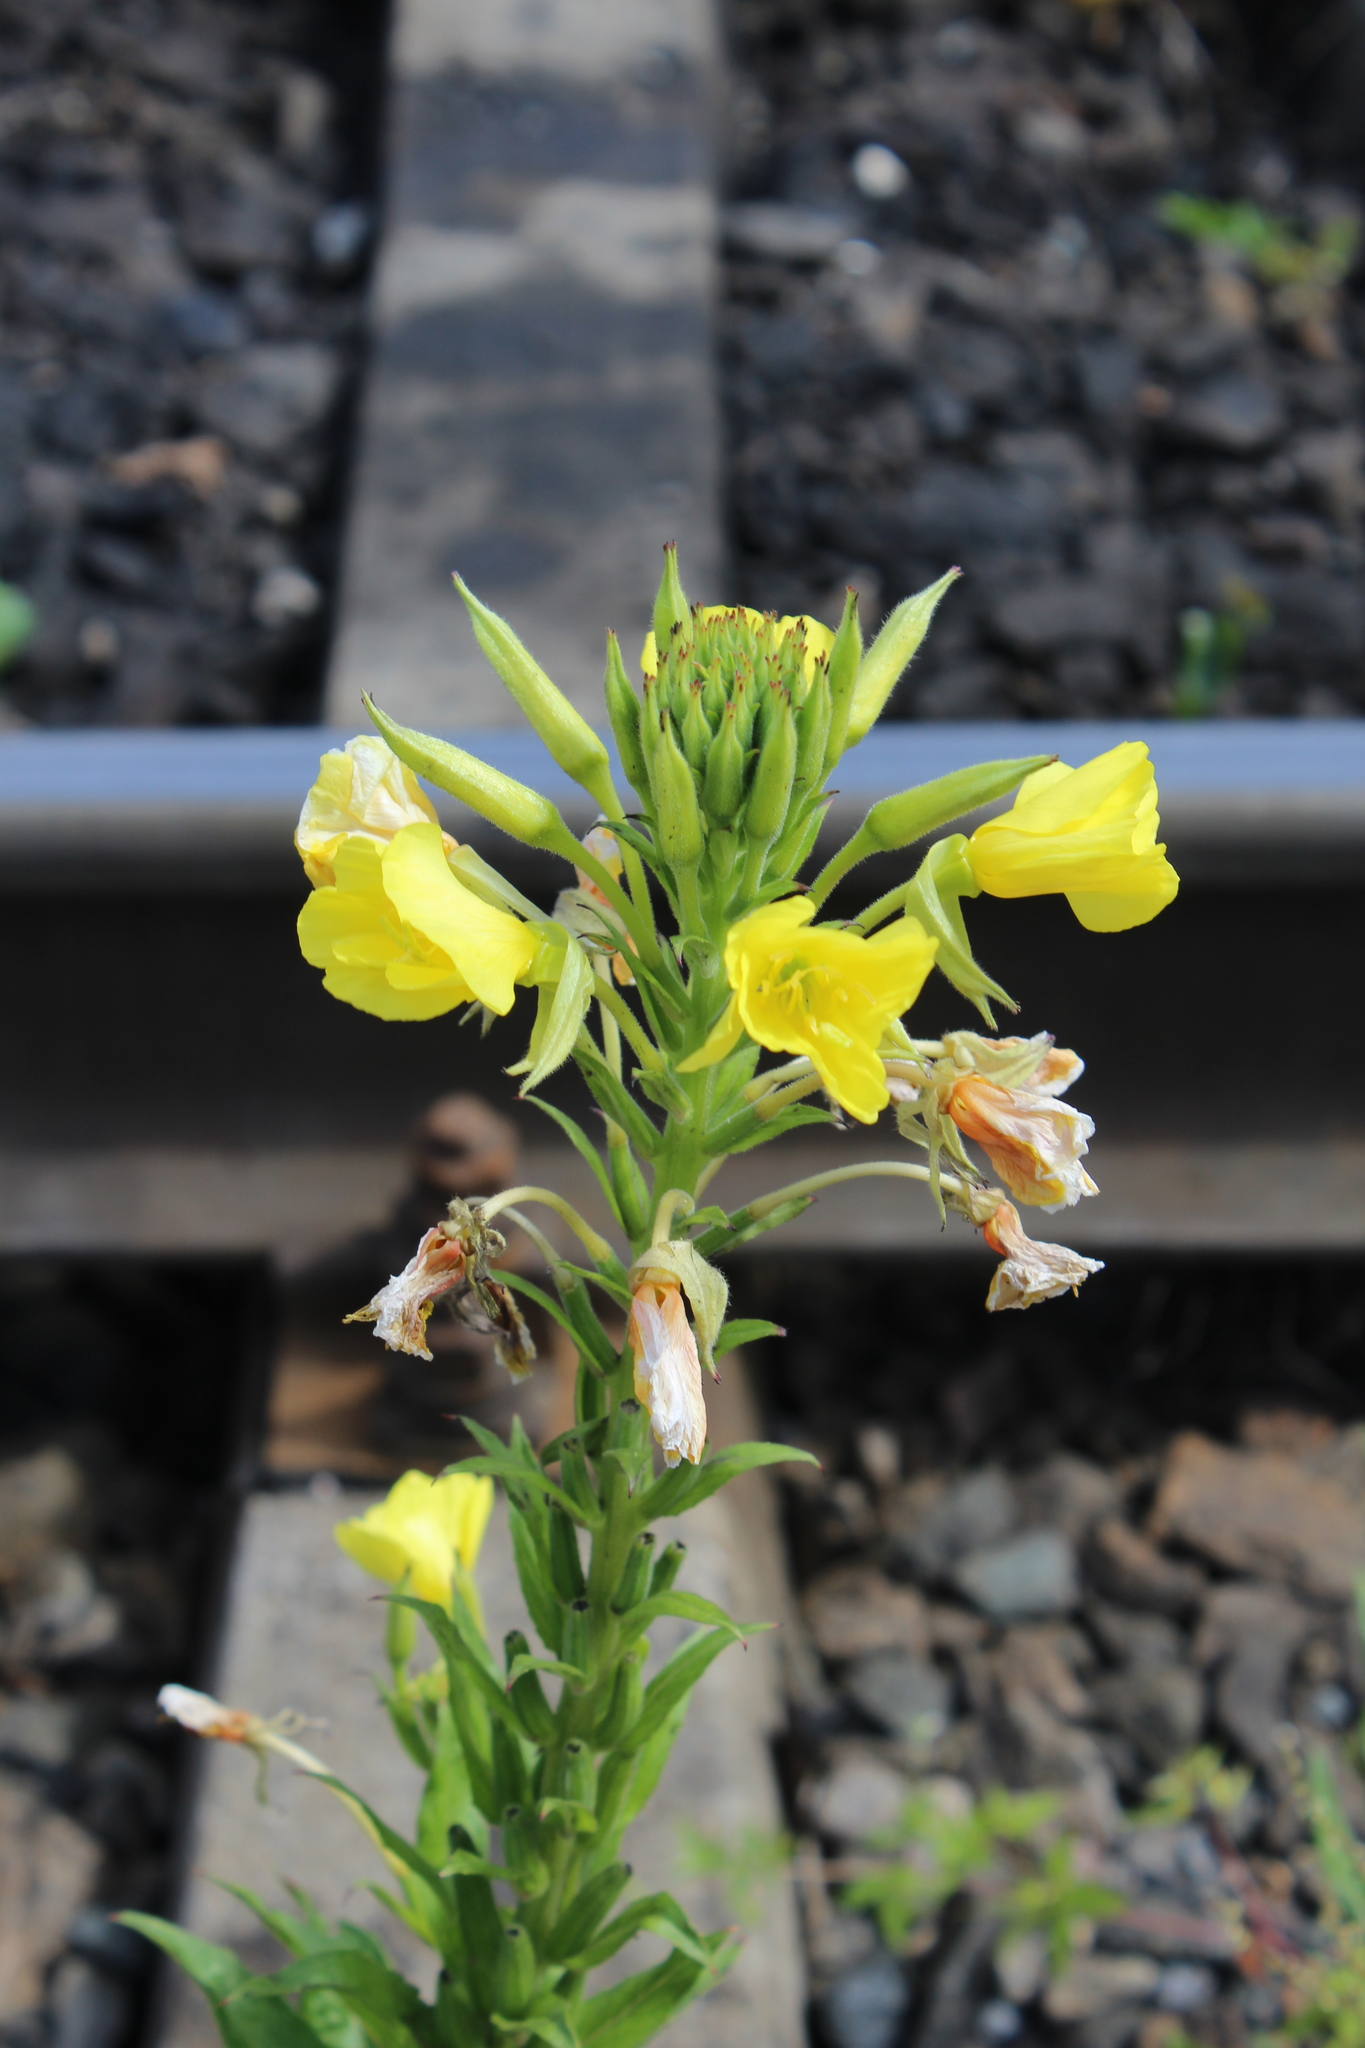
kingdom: Plantae
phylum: Tracheophyta
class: Magnoliopsida
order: Myrtales
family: Onagraceae
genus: Oenothera
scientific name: Oenothera biennis
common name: Common evening-primrose
